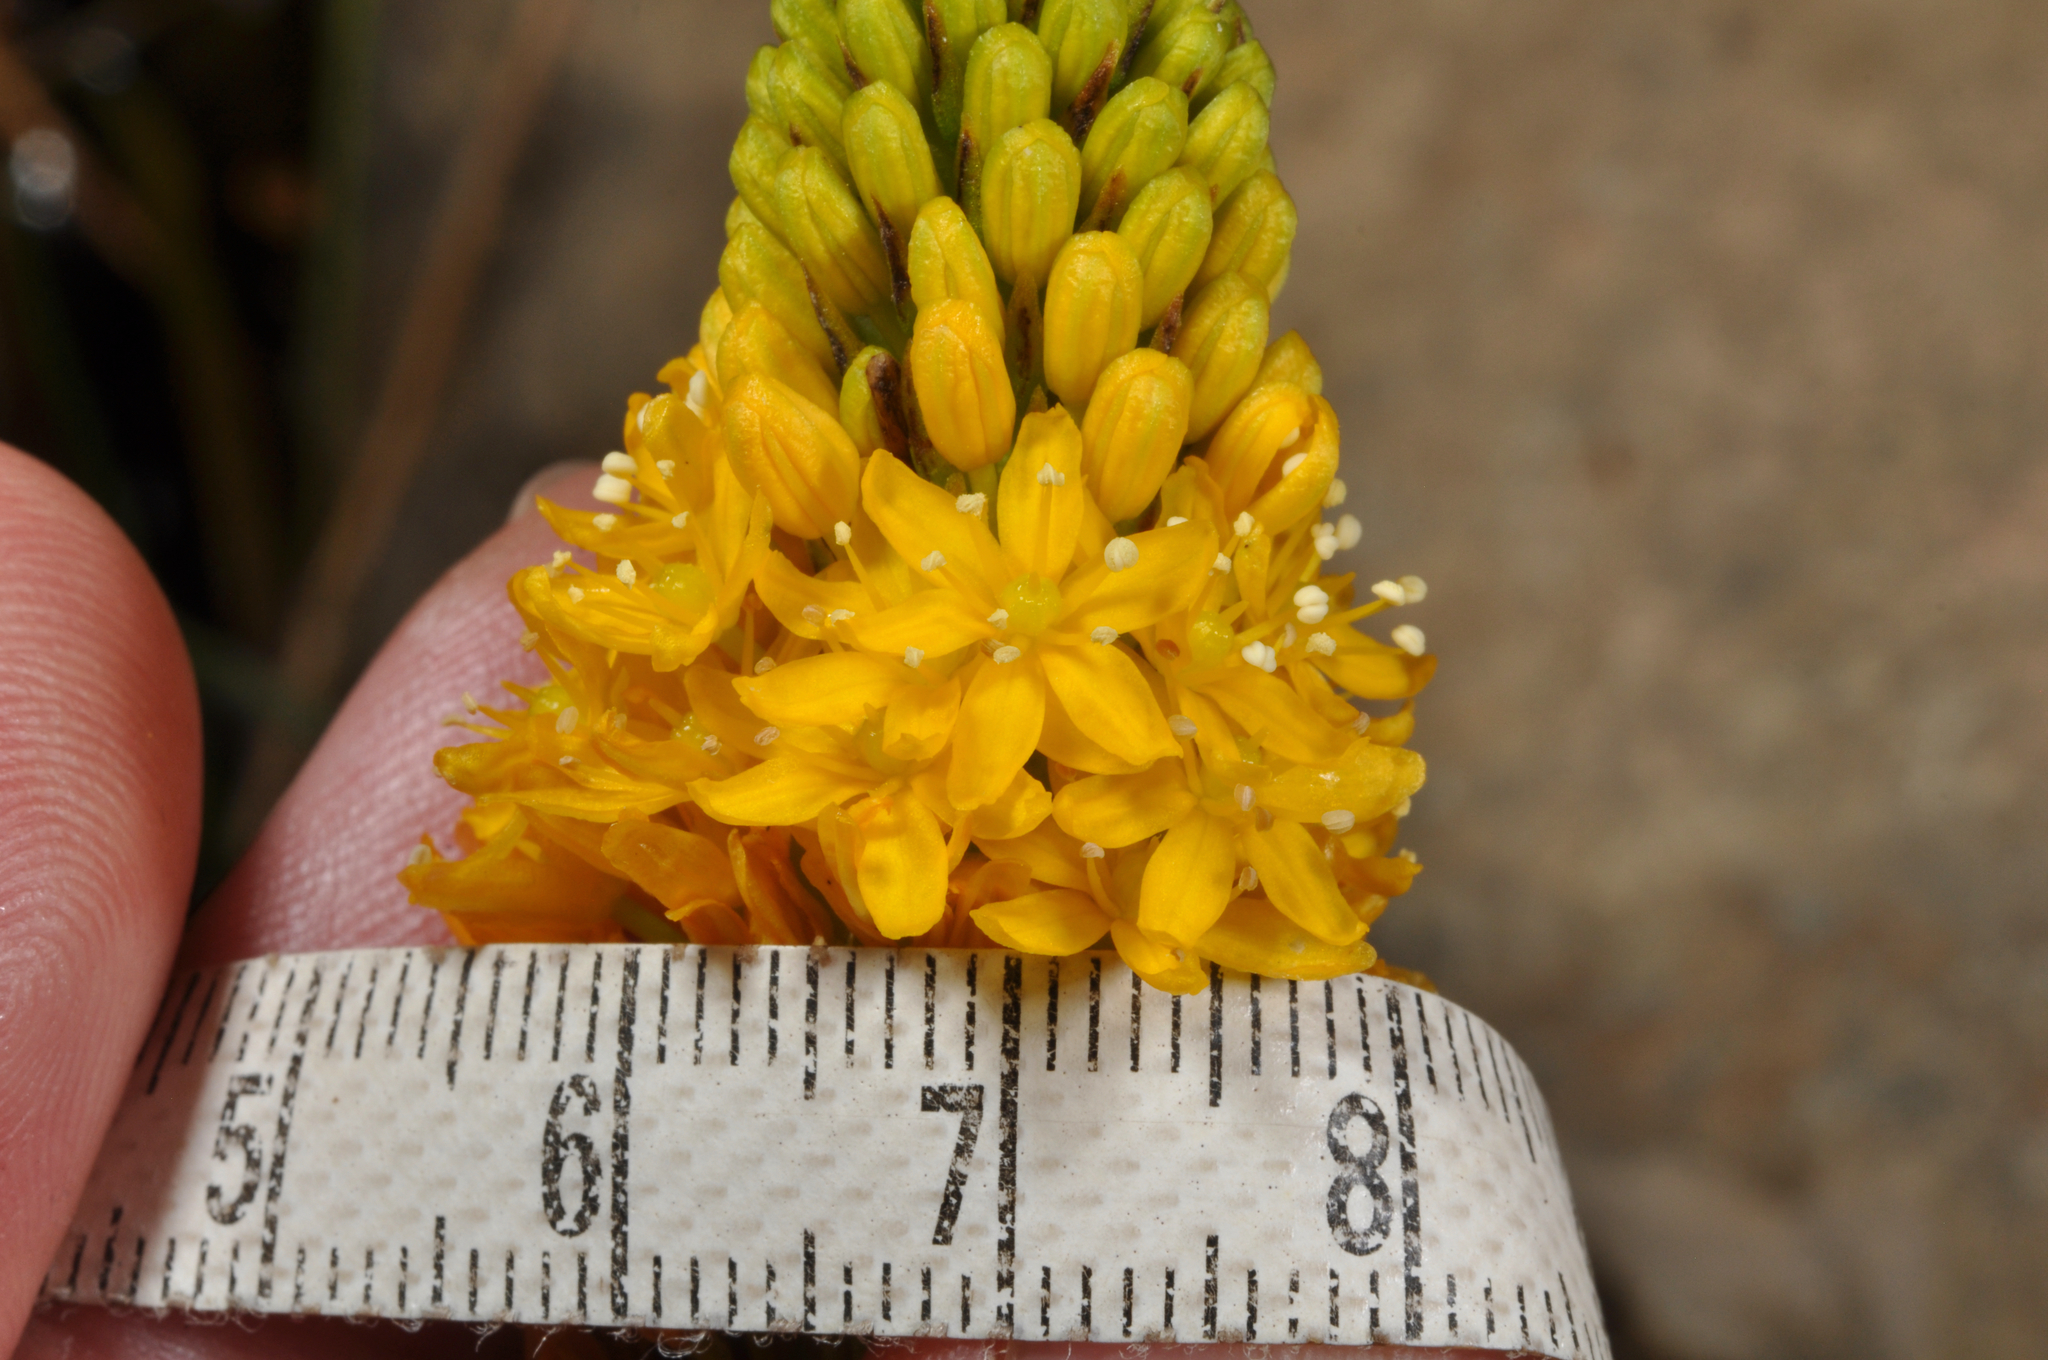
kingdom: Plantae
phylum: Tracheophyta
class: Liliopsida
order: Asparagales
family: Asphodelaceae
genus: Bulbinella
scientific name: Bulbinella angustifolia
